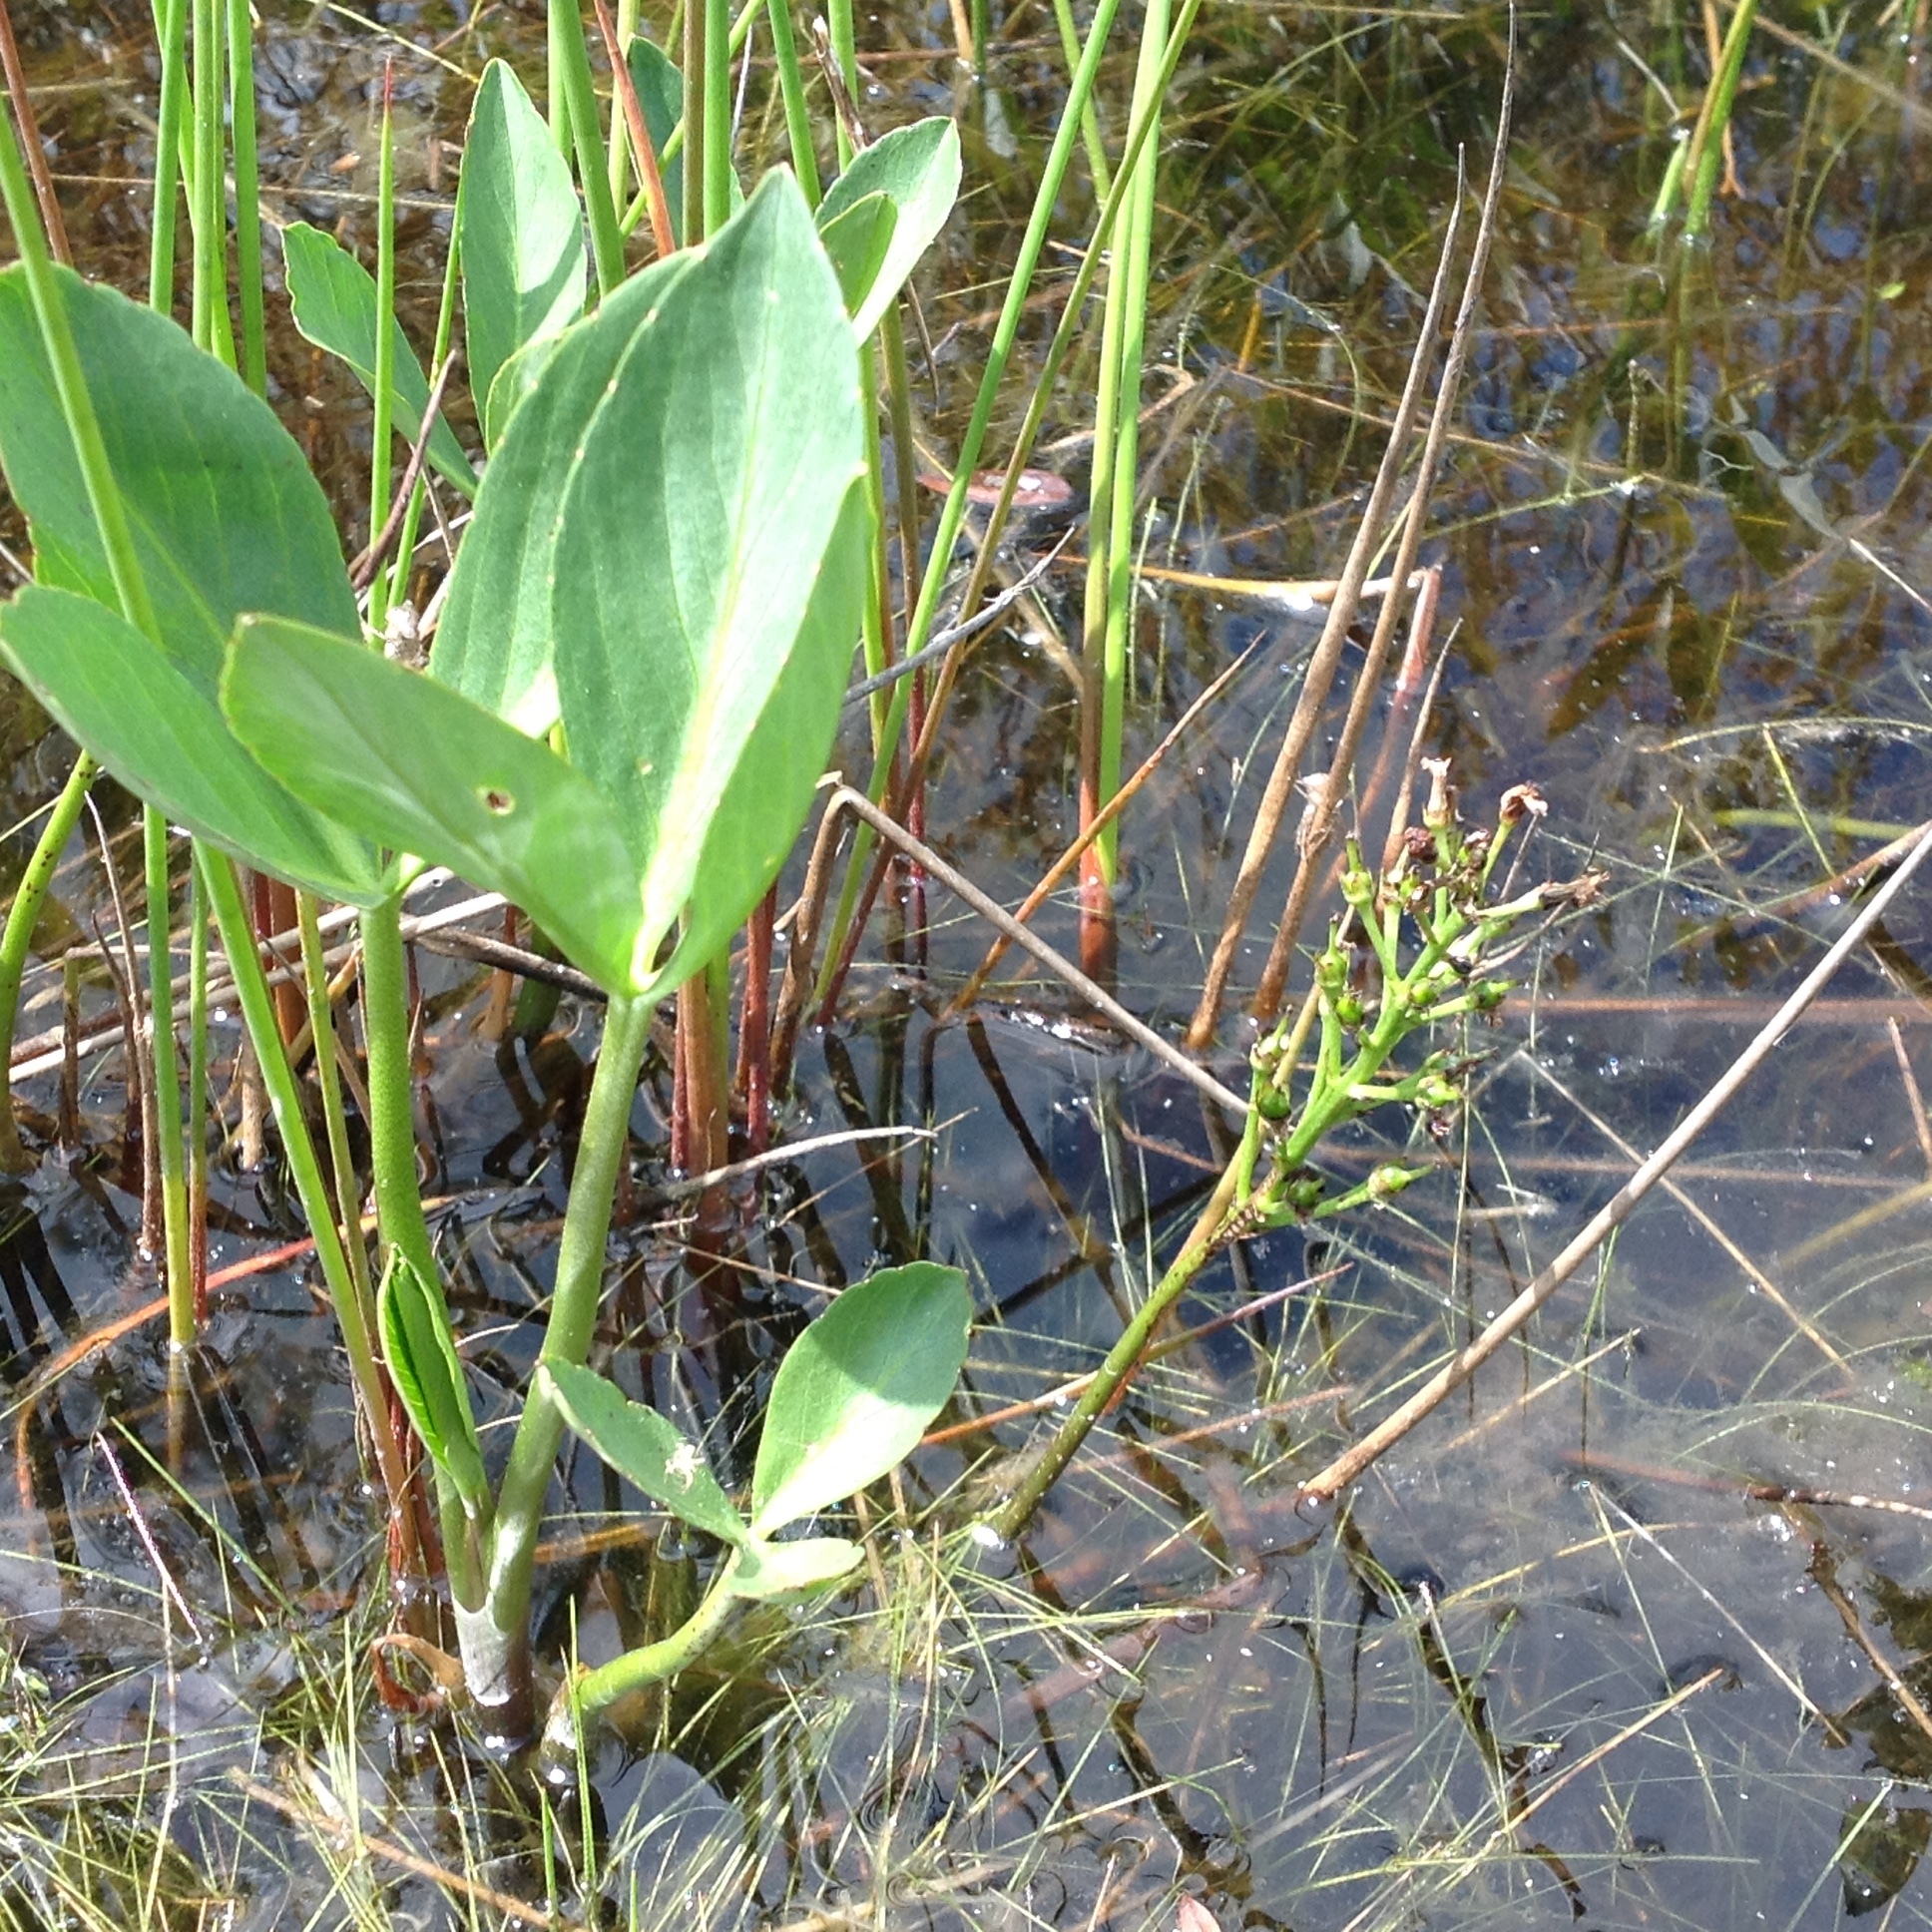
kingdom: Plantae
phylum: Tracheophyta
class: Magnoliopsida
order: Asterales
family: Menyanthaceae
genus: Menyanthes
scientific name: Menyanthes trifoliata
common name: Bogbean
